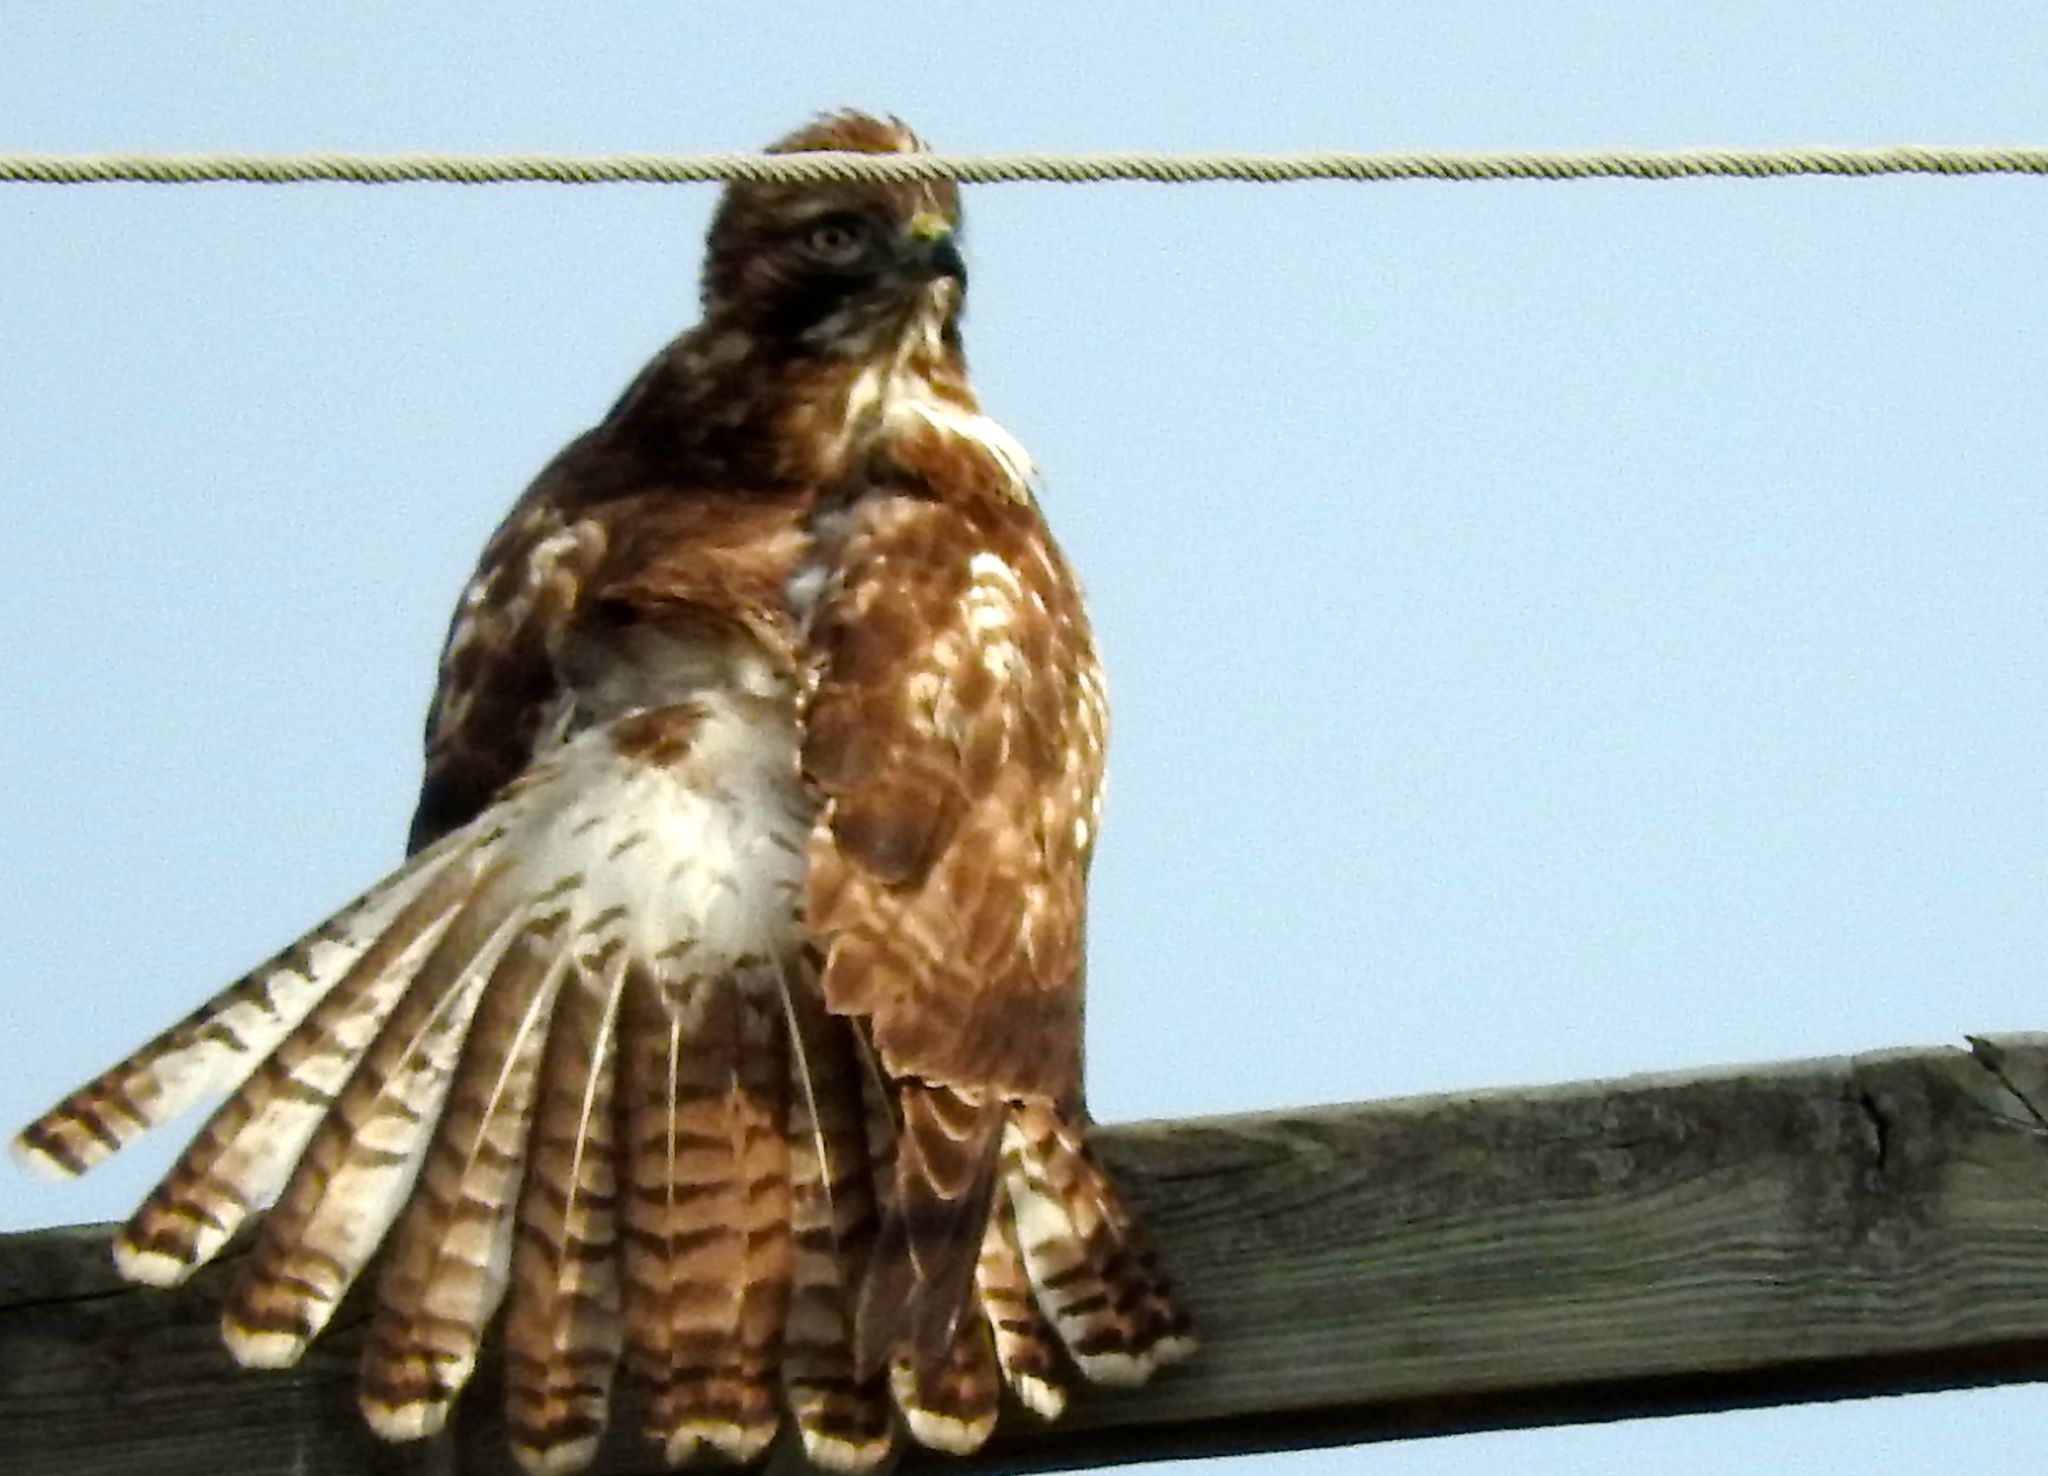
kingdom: Animalia
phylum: Chordata
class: Aves
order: Accipitriformes
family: Accipitridae
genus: Buteo
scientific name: Buteo jamaicensis
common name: Red-tailed hawk
